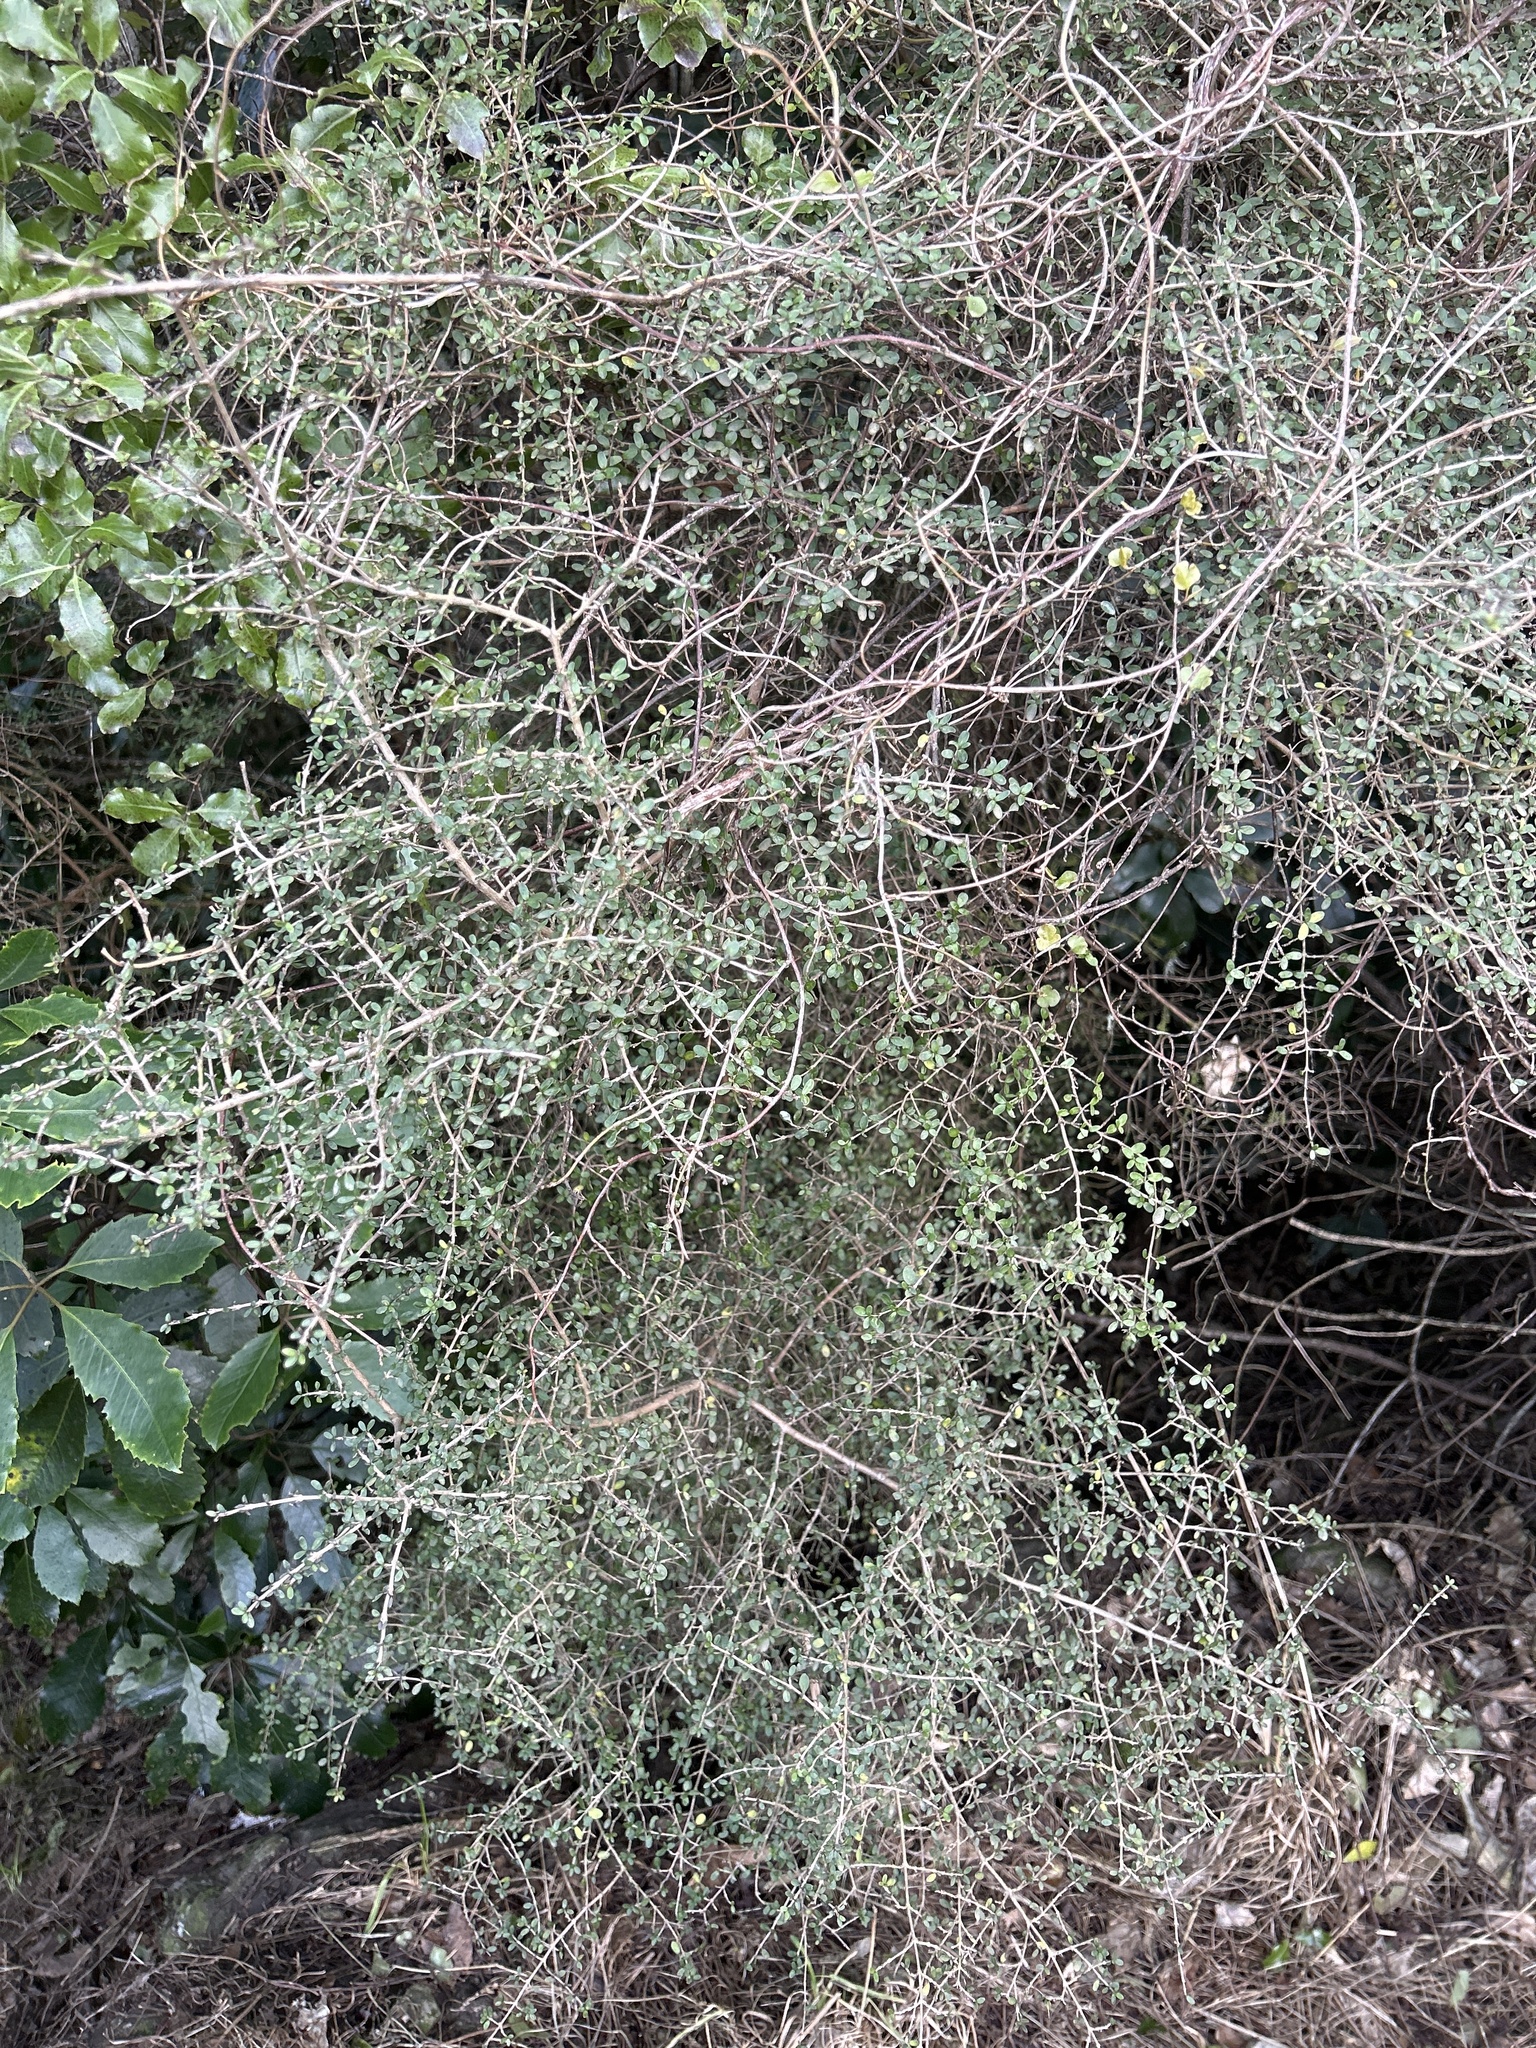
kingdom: Plantae
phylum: Tracheophyta
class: Magnoliopsida
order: Gentianales
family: Rubiaceae
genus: Coprosma
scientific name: Coprosma dumosa
